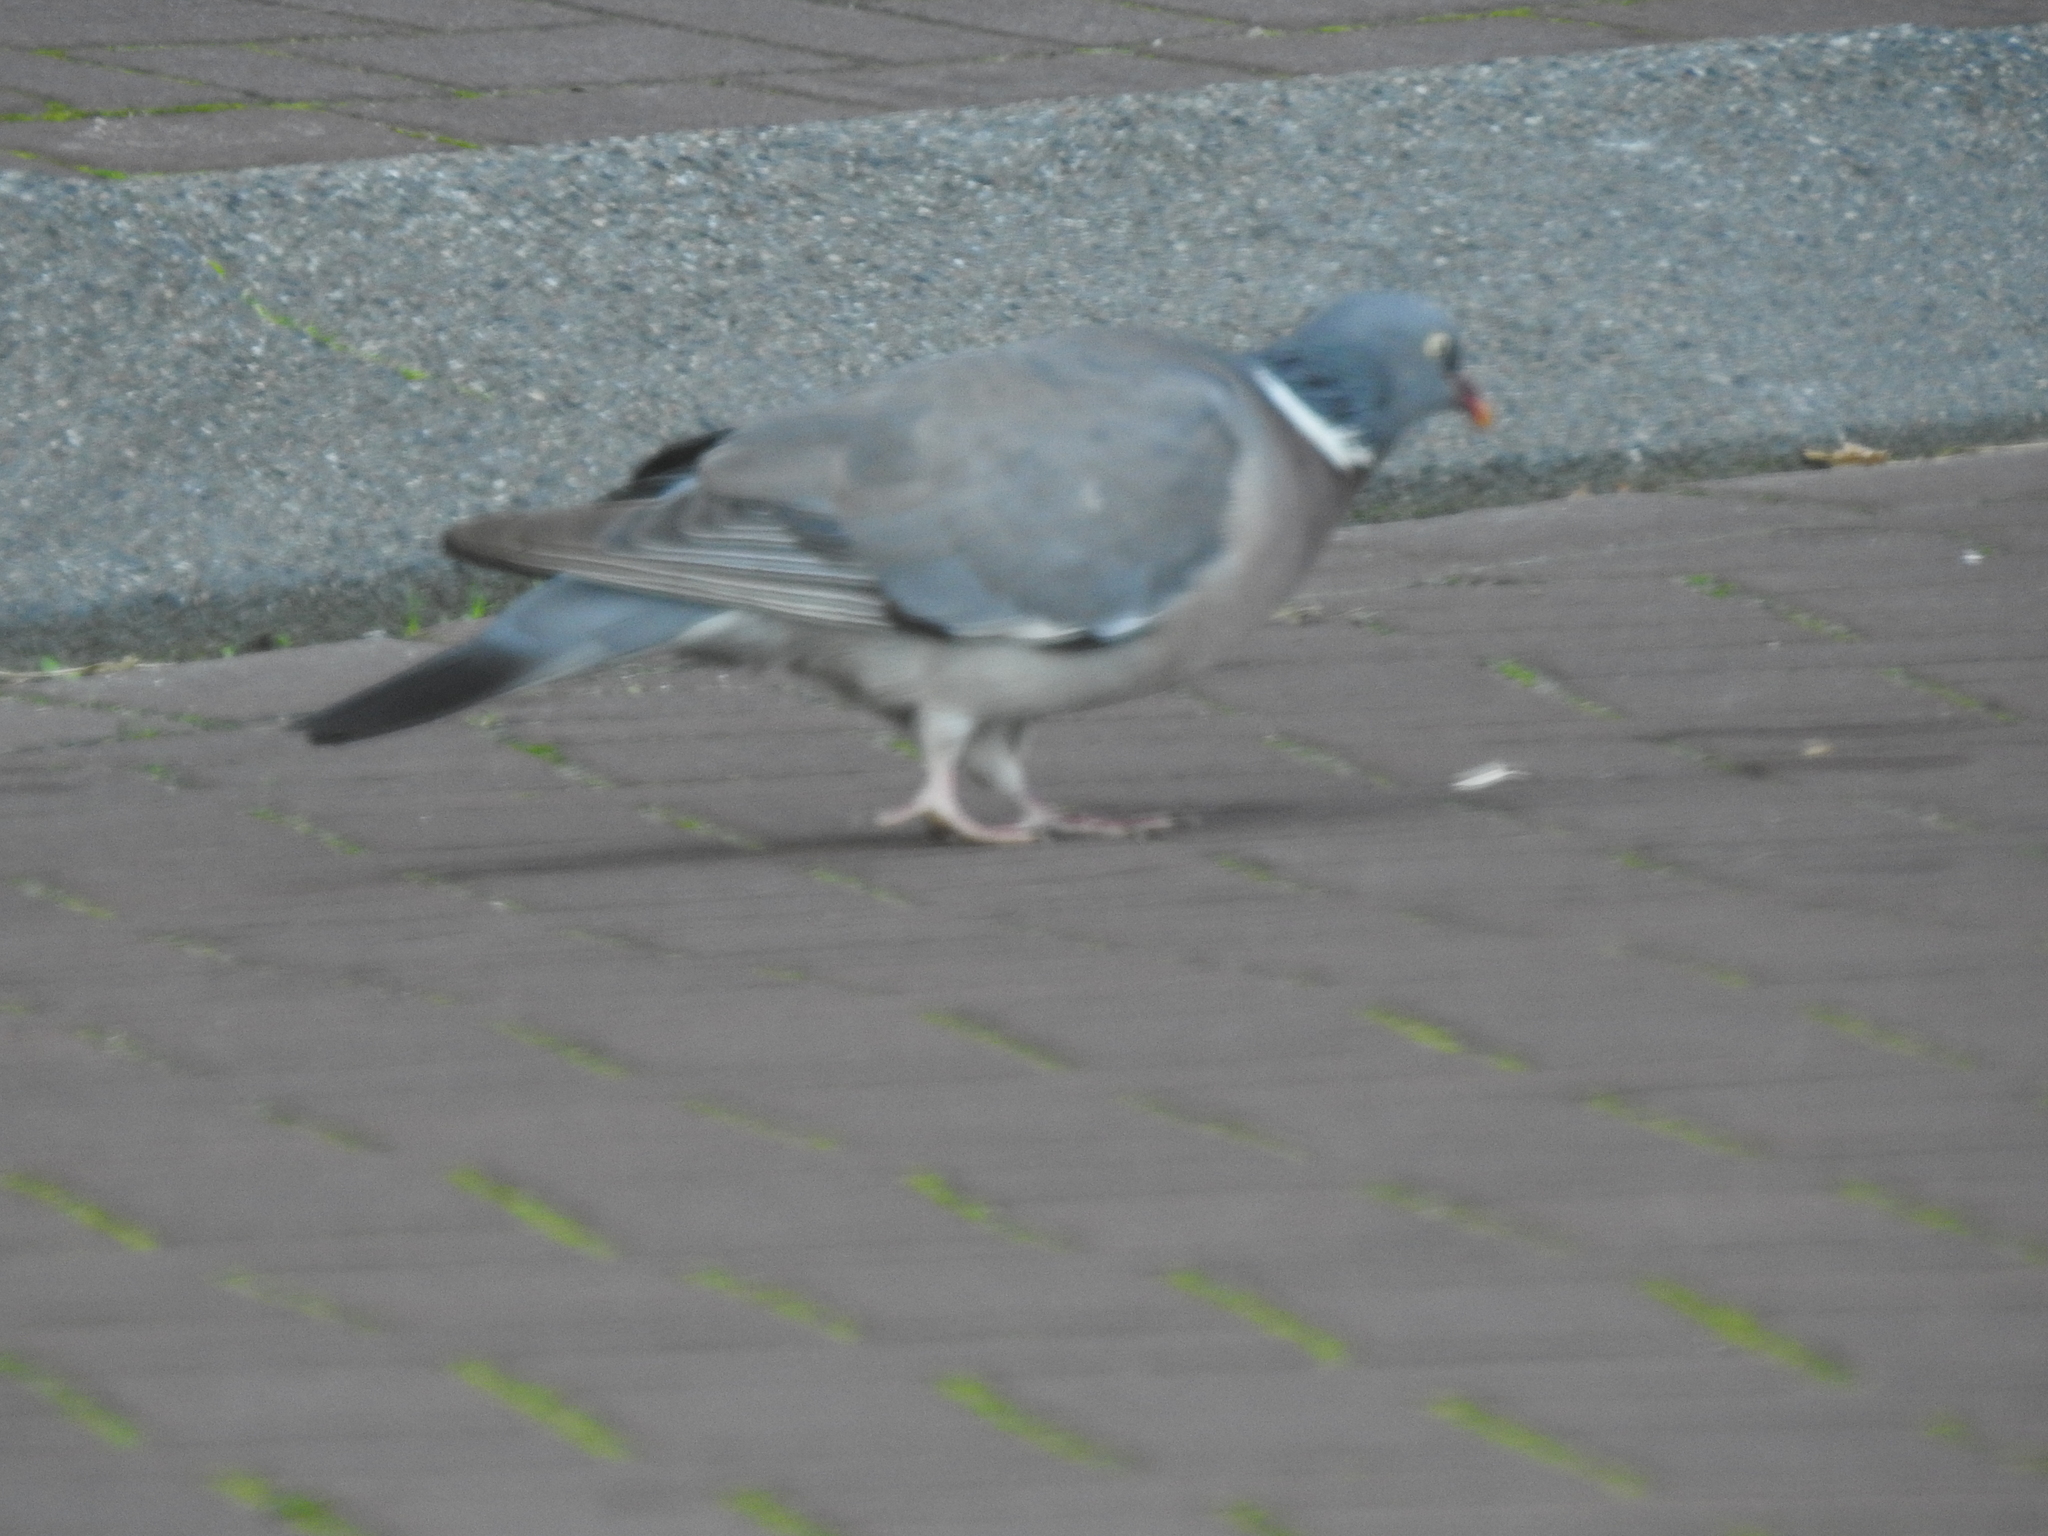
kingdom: Animalia
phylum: Chordata
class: Aves
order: Columbiformes
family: Columbidae
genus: Columba
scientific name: Columba palumbus
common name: Common wood pigeon
